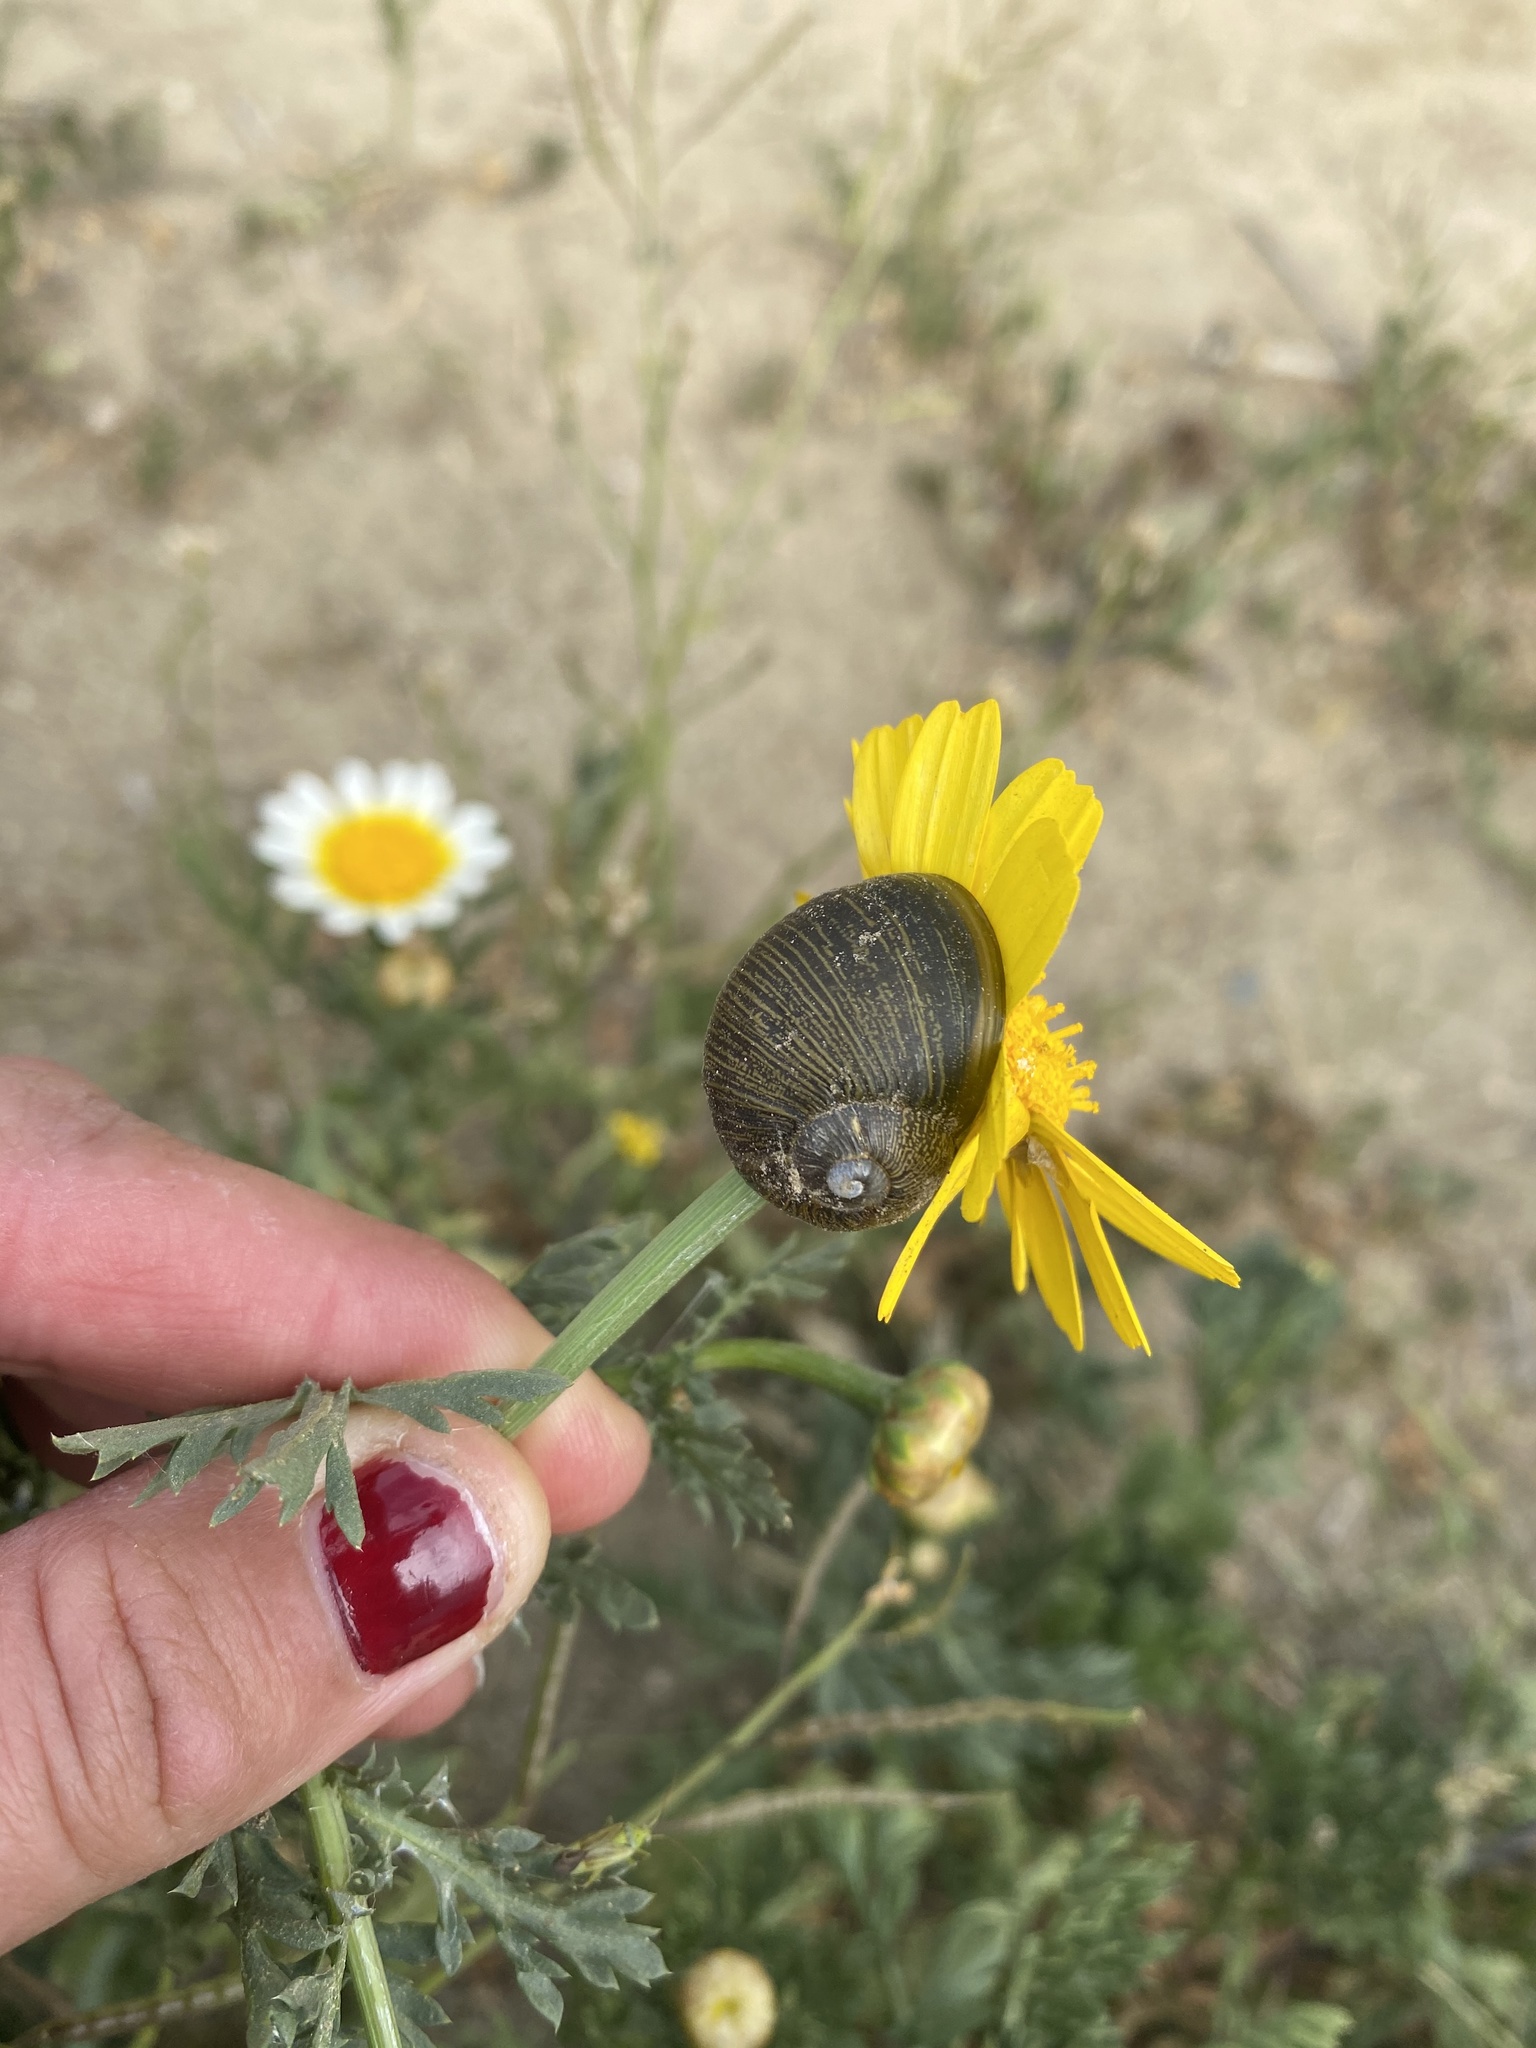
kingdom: Animalia
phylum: Mollusca
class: Gastropoda
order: Stylommatophora
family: Helicidae
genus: Cantareus
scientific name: Cantareus apertus
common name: Green gardensnail
